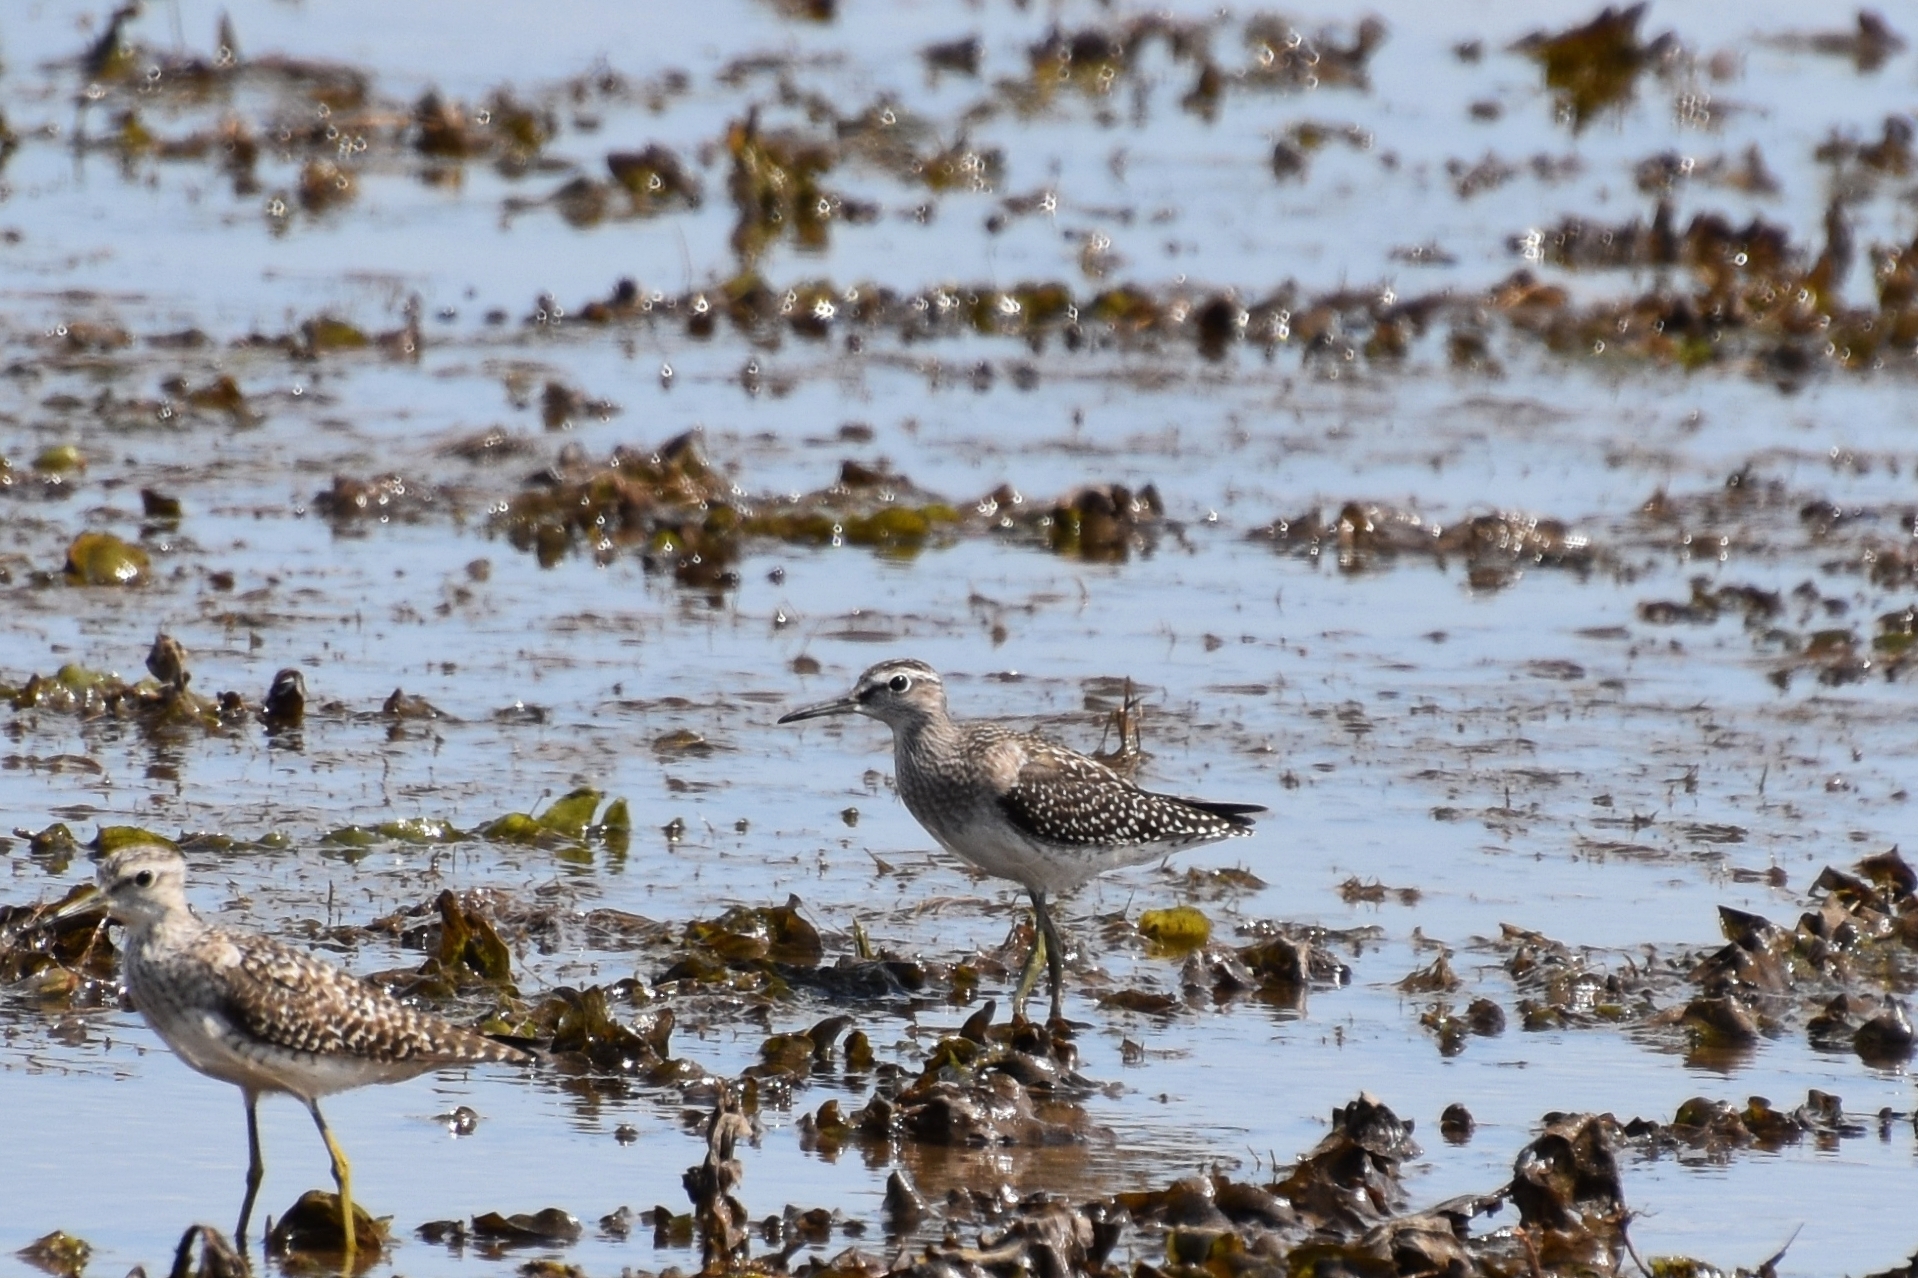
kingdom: Animalia
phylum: Chordata
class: Aves
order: Charadriiformes
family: Scolopacidae
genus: Tringa
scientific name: Tringa glareola
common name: Wood sandpiper
